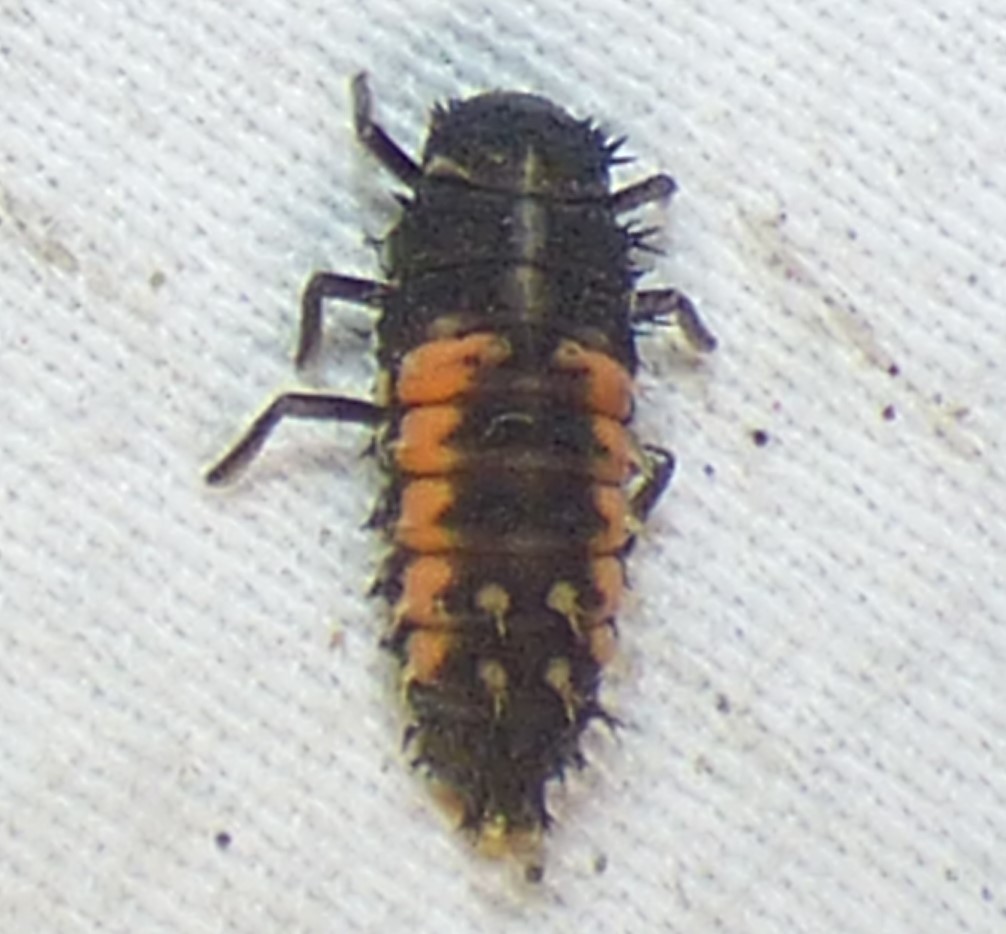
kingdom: Animalia
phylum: Arthropoda
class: Insecta
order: Coleoptera
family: Coccinellidae
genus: Harmonia
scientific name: Harmonia axyridis
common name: Harlequin ladybird
